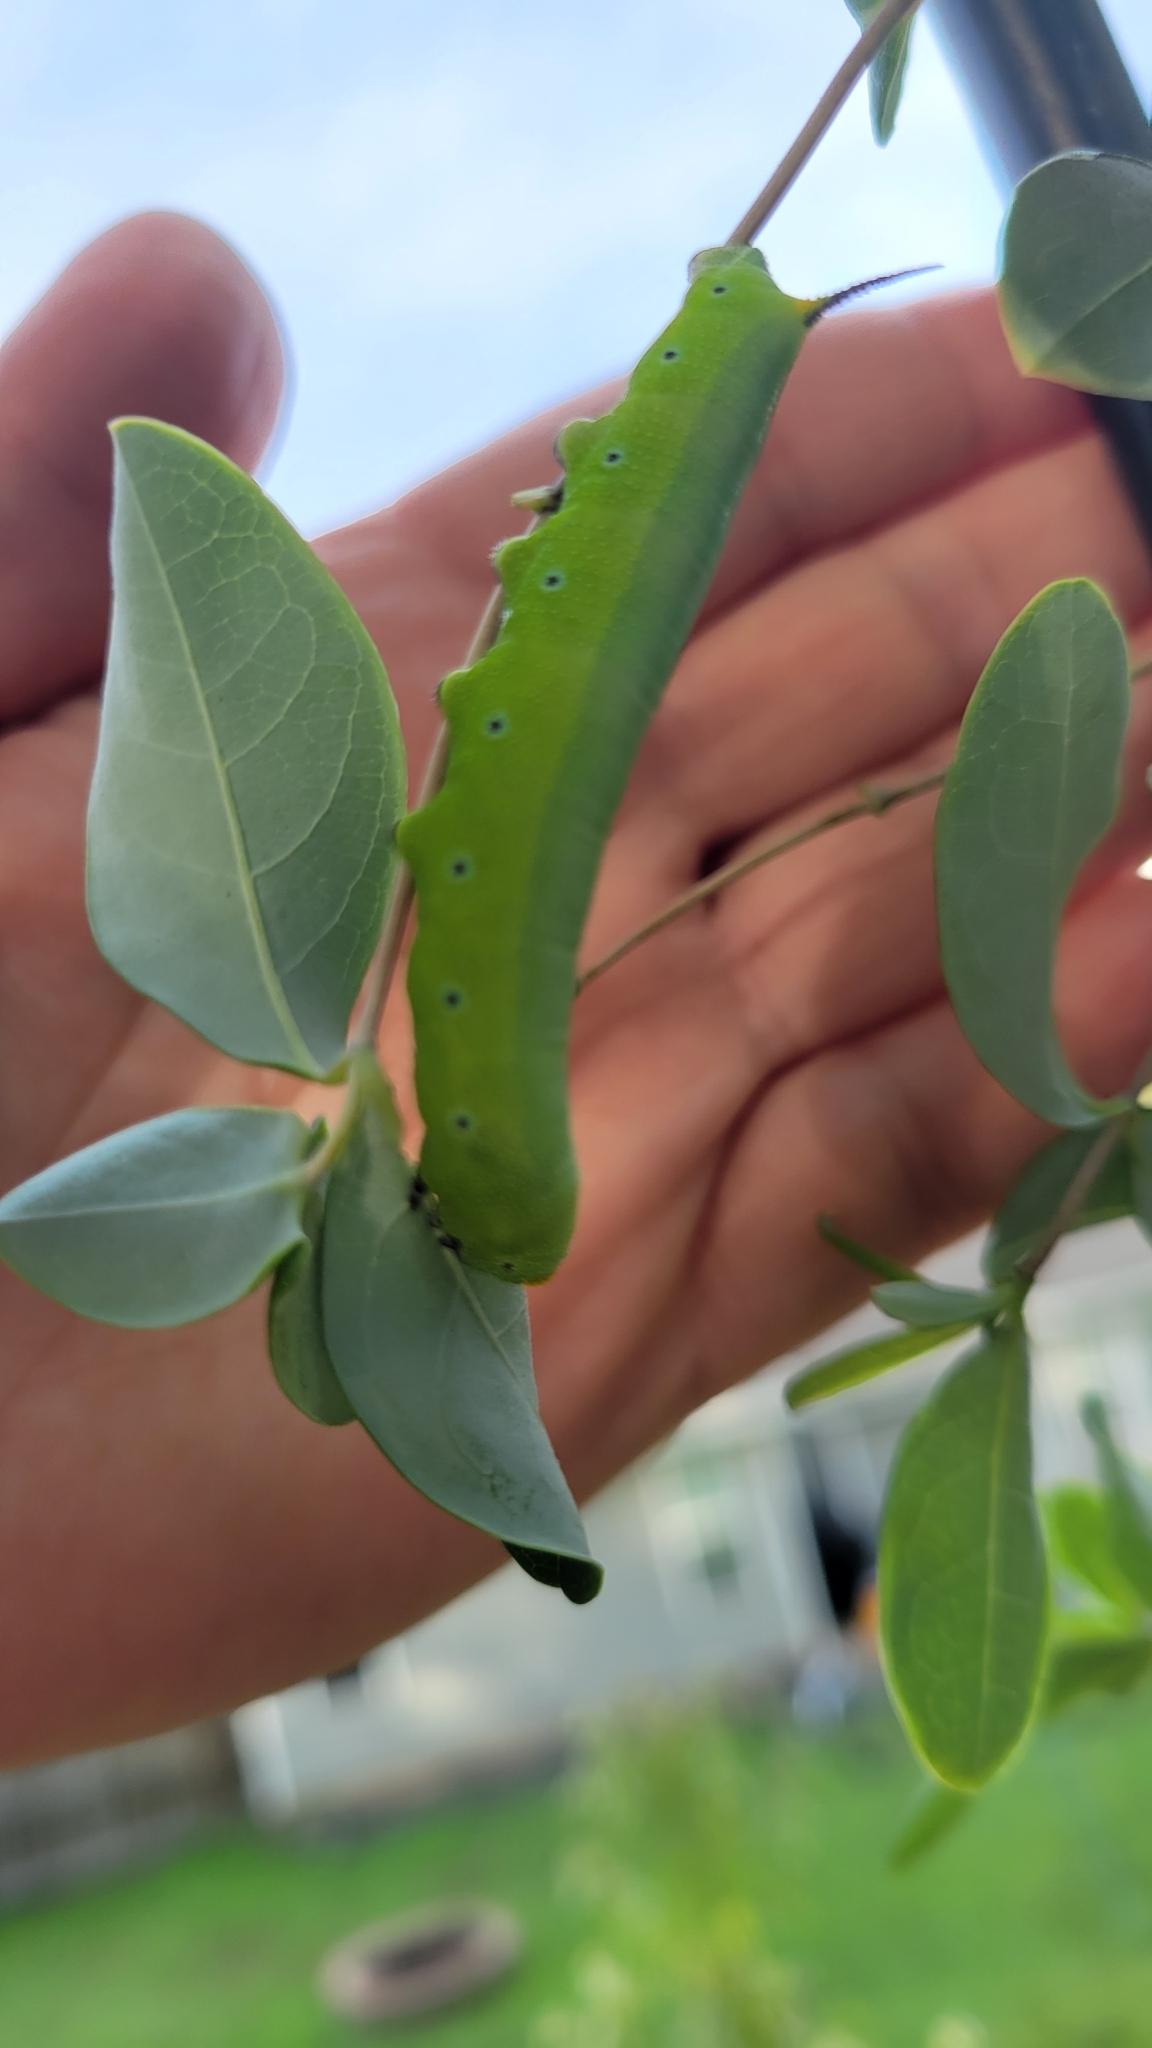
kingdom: Animalia
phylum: Arthropoda
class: Insecta
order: Lepidoptera
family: Sphingidae
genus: Hemaris
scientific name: Hemaris diffinis
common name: Bumblebee moth
